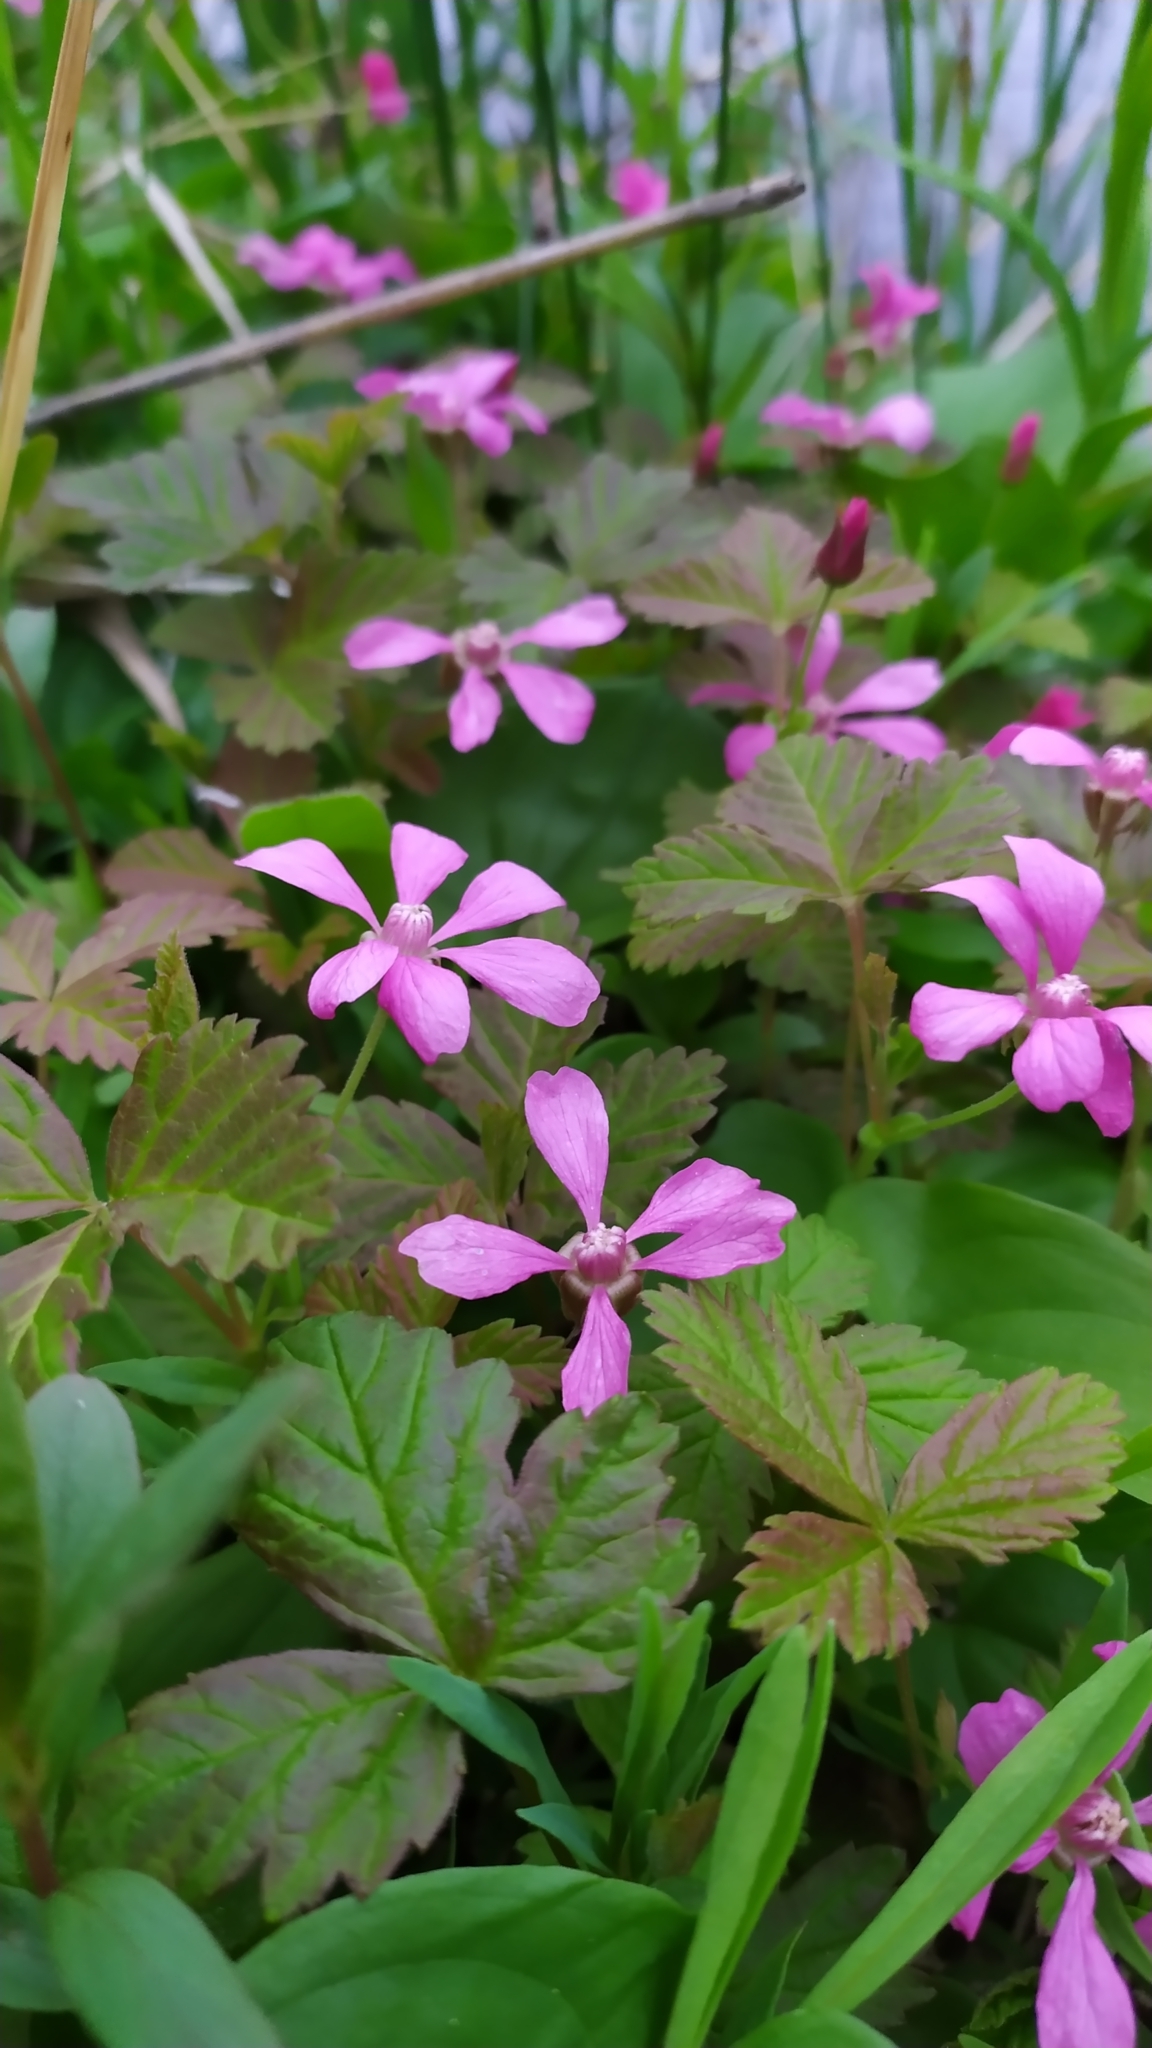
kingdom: Plantae
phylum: Tracheophyta
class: Magnoliopsida
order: Rosales
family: Rosaceae
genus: Rubus
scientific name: Rubus arcticus
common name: Arctic bramble
